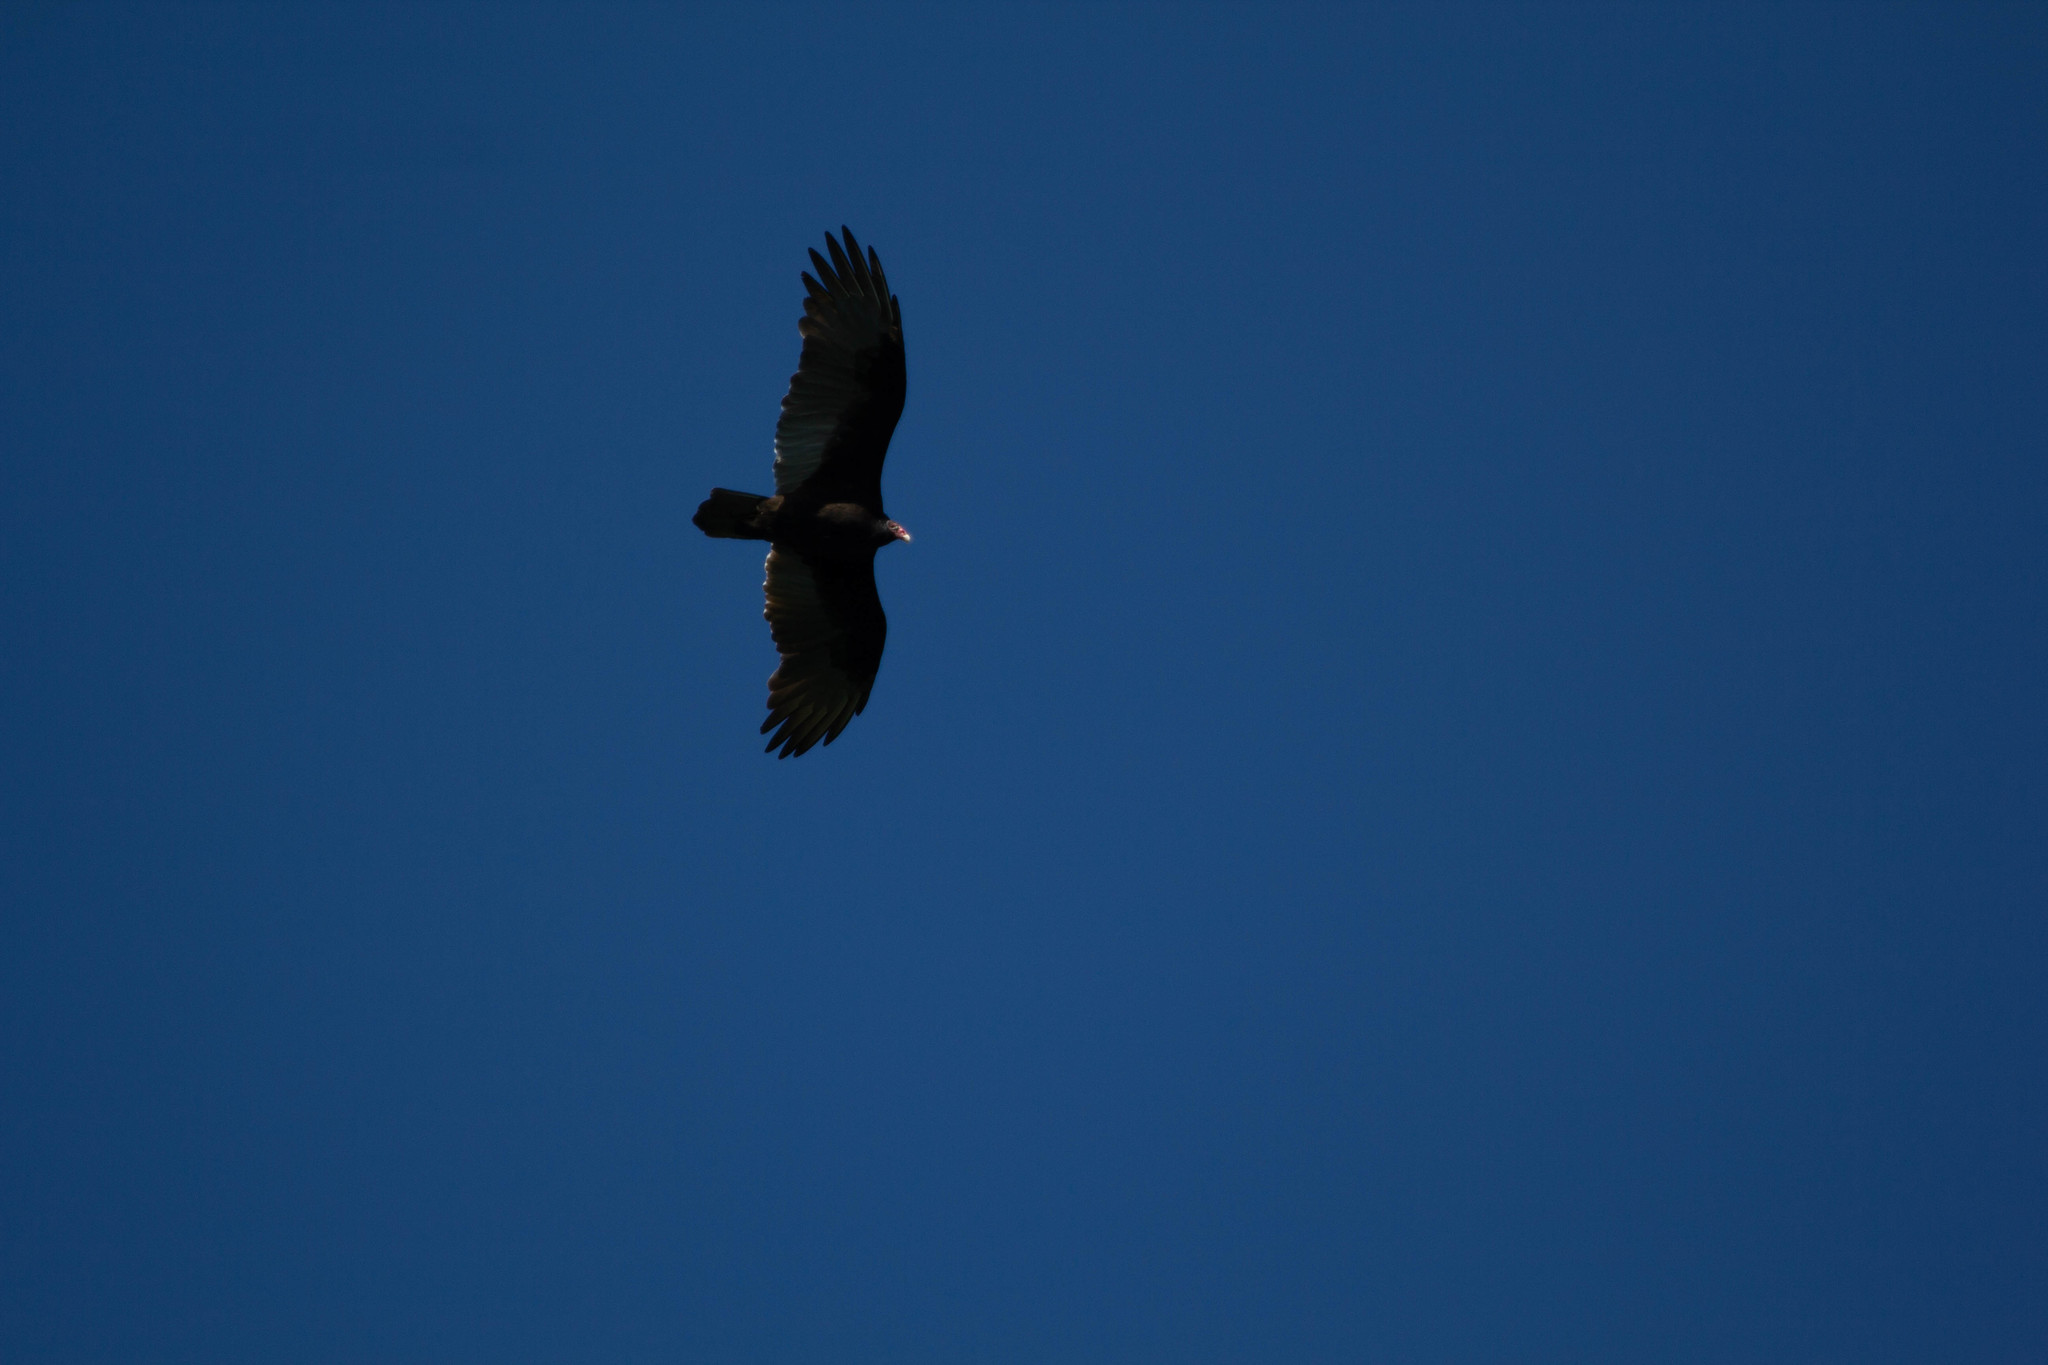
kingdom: Animalia
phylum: Chordata
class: Aves
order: Accipitriformes
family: Cathartidae
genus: Cathartes
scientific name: Cathartes aura
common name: Turkey vulture
